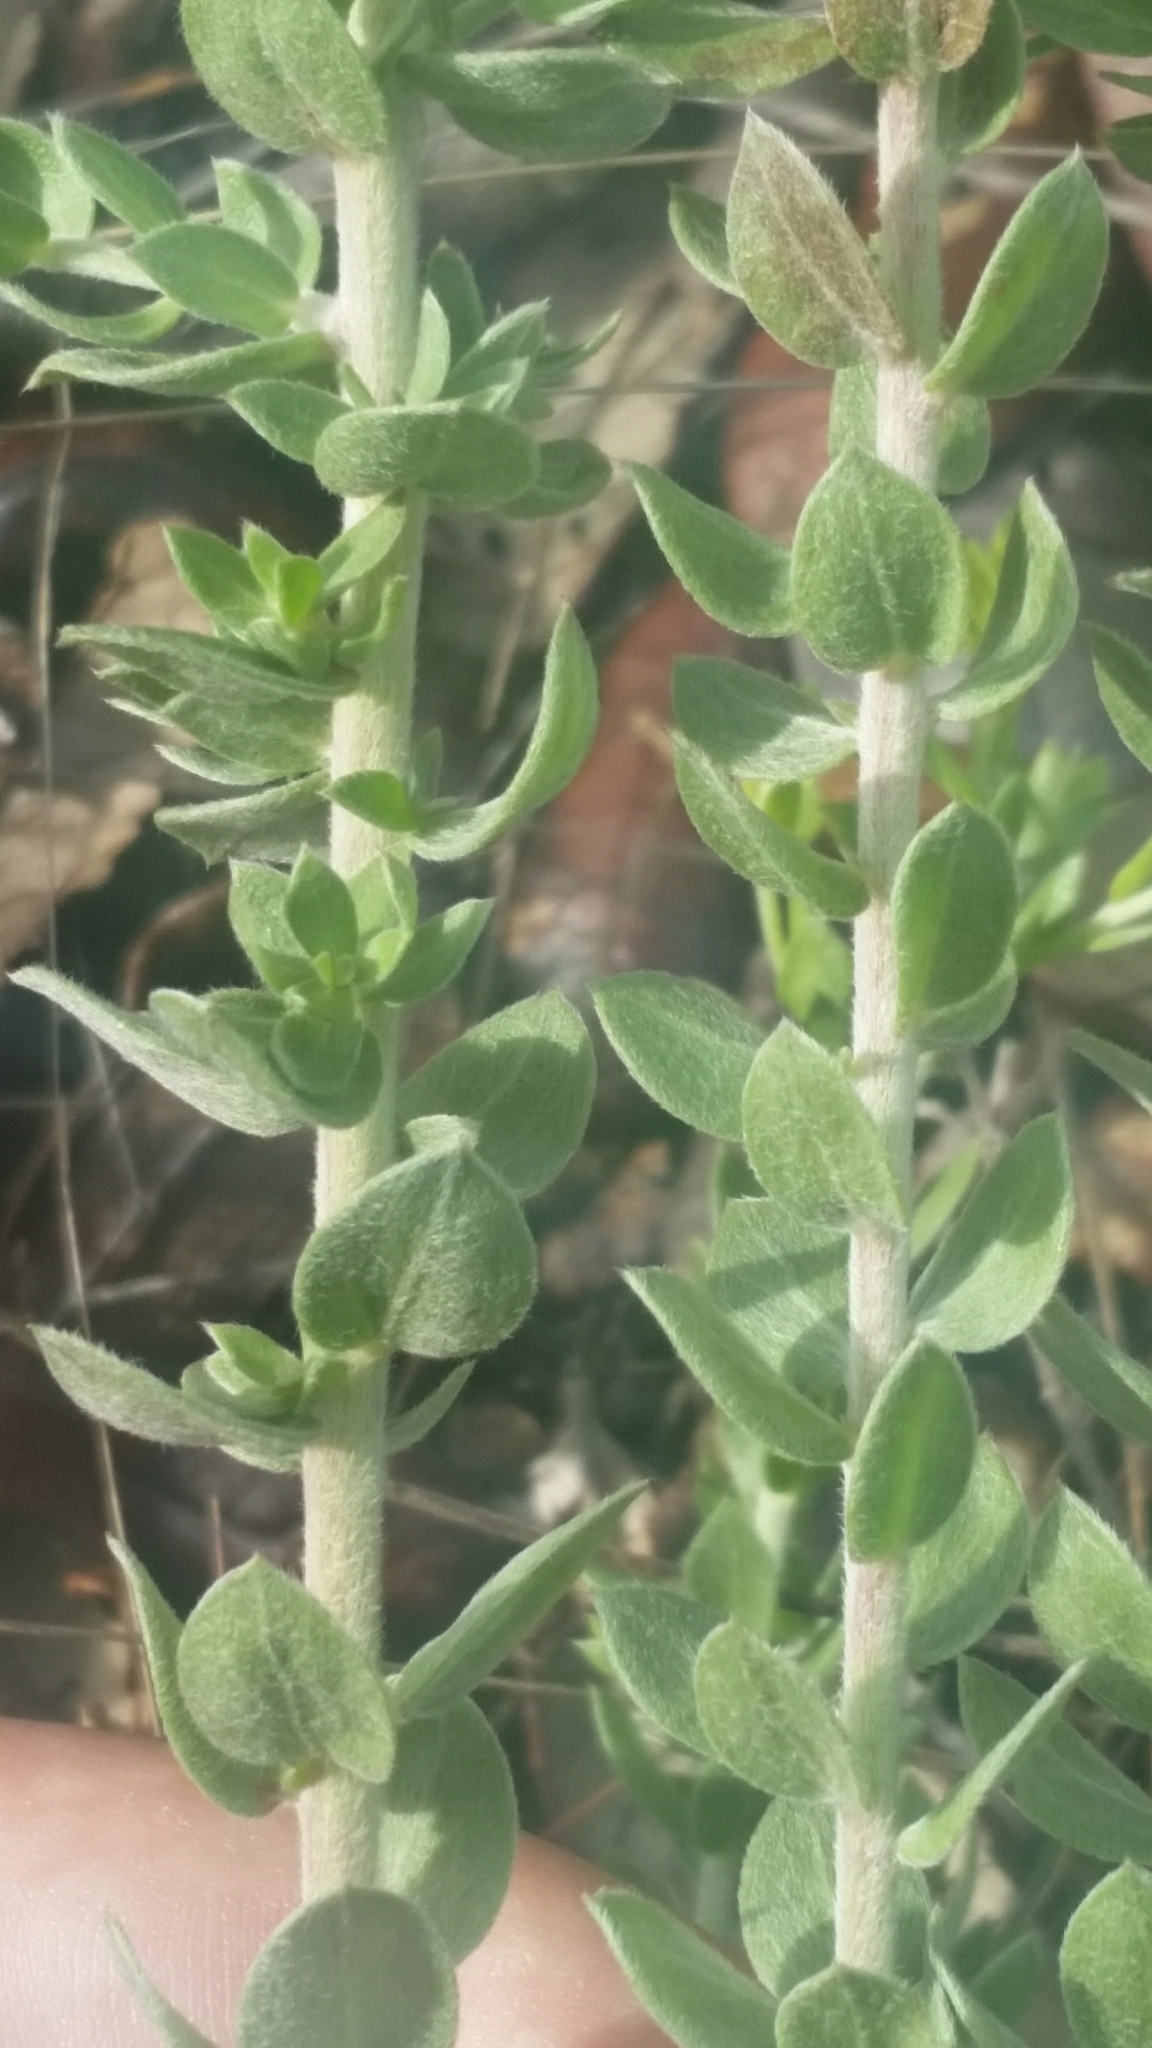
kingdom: Plantae
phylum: Tracheophyta
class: Magnoliopsida
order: Malvales
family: Cistaceae
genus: Lechea
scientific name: Lechea cernua
